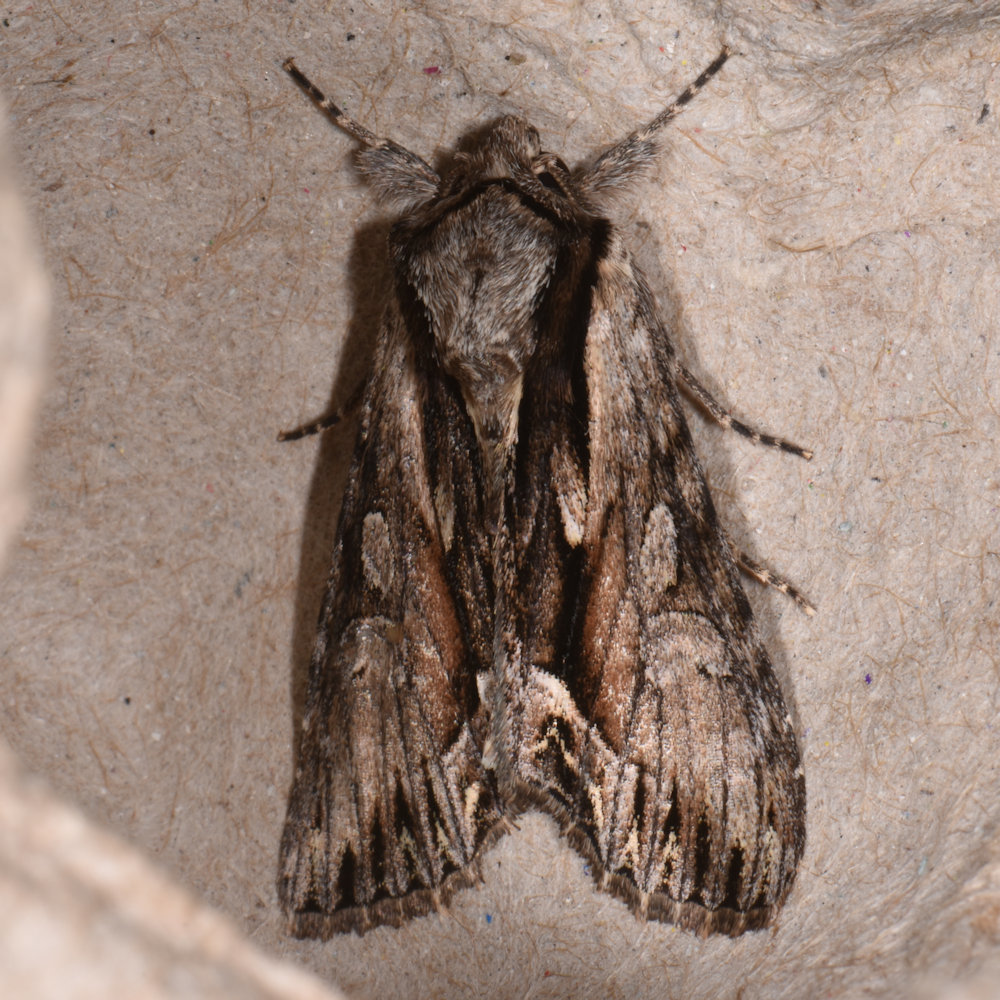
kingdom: Animalia
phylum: Arthropoda
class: Insecta
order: Lepidoptera
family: Noctuidae
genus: Hyppa
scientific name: Hyppa xylinoides
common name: Common hyppa moth
